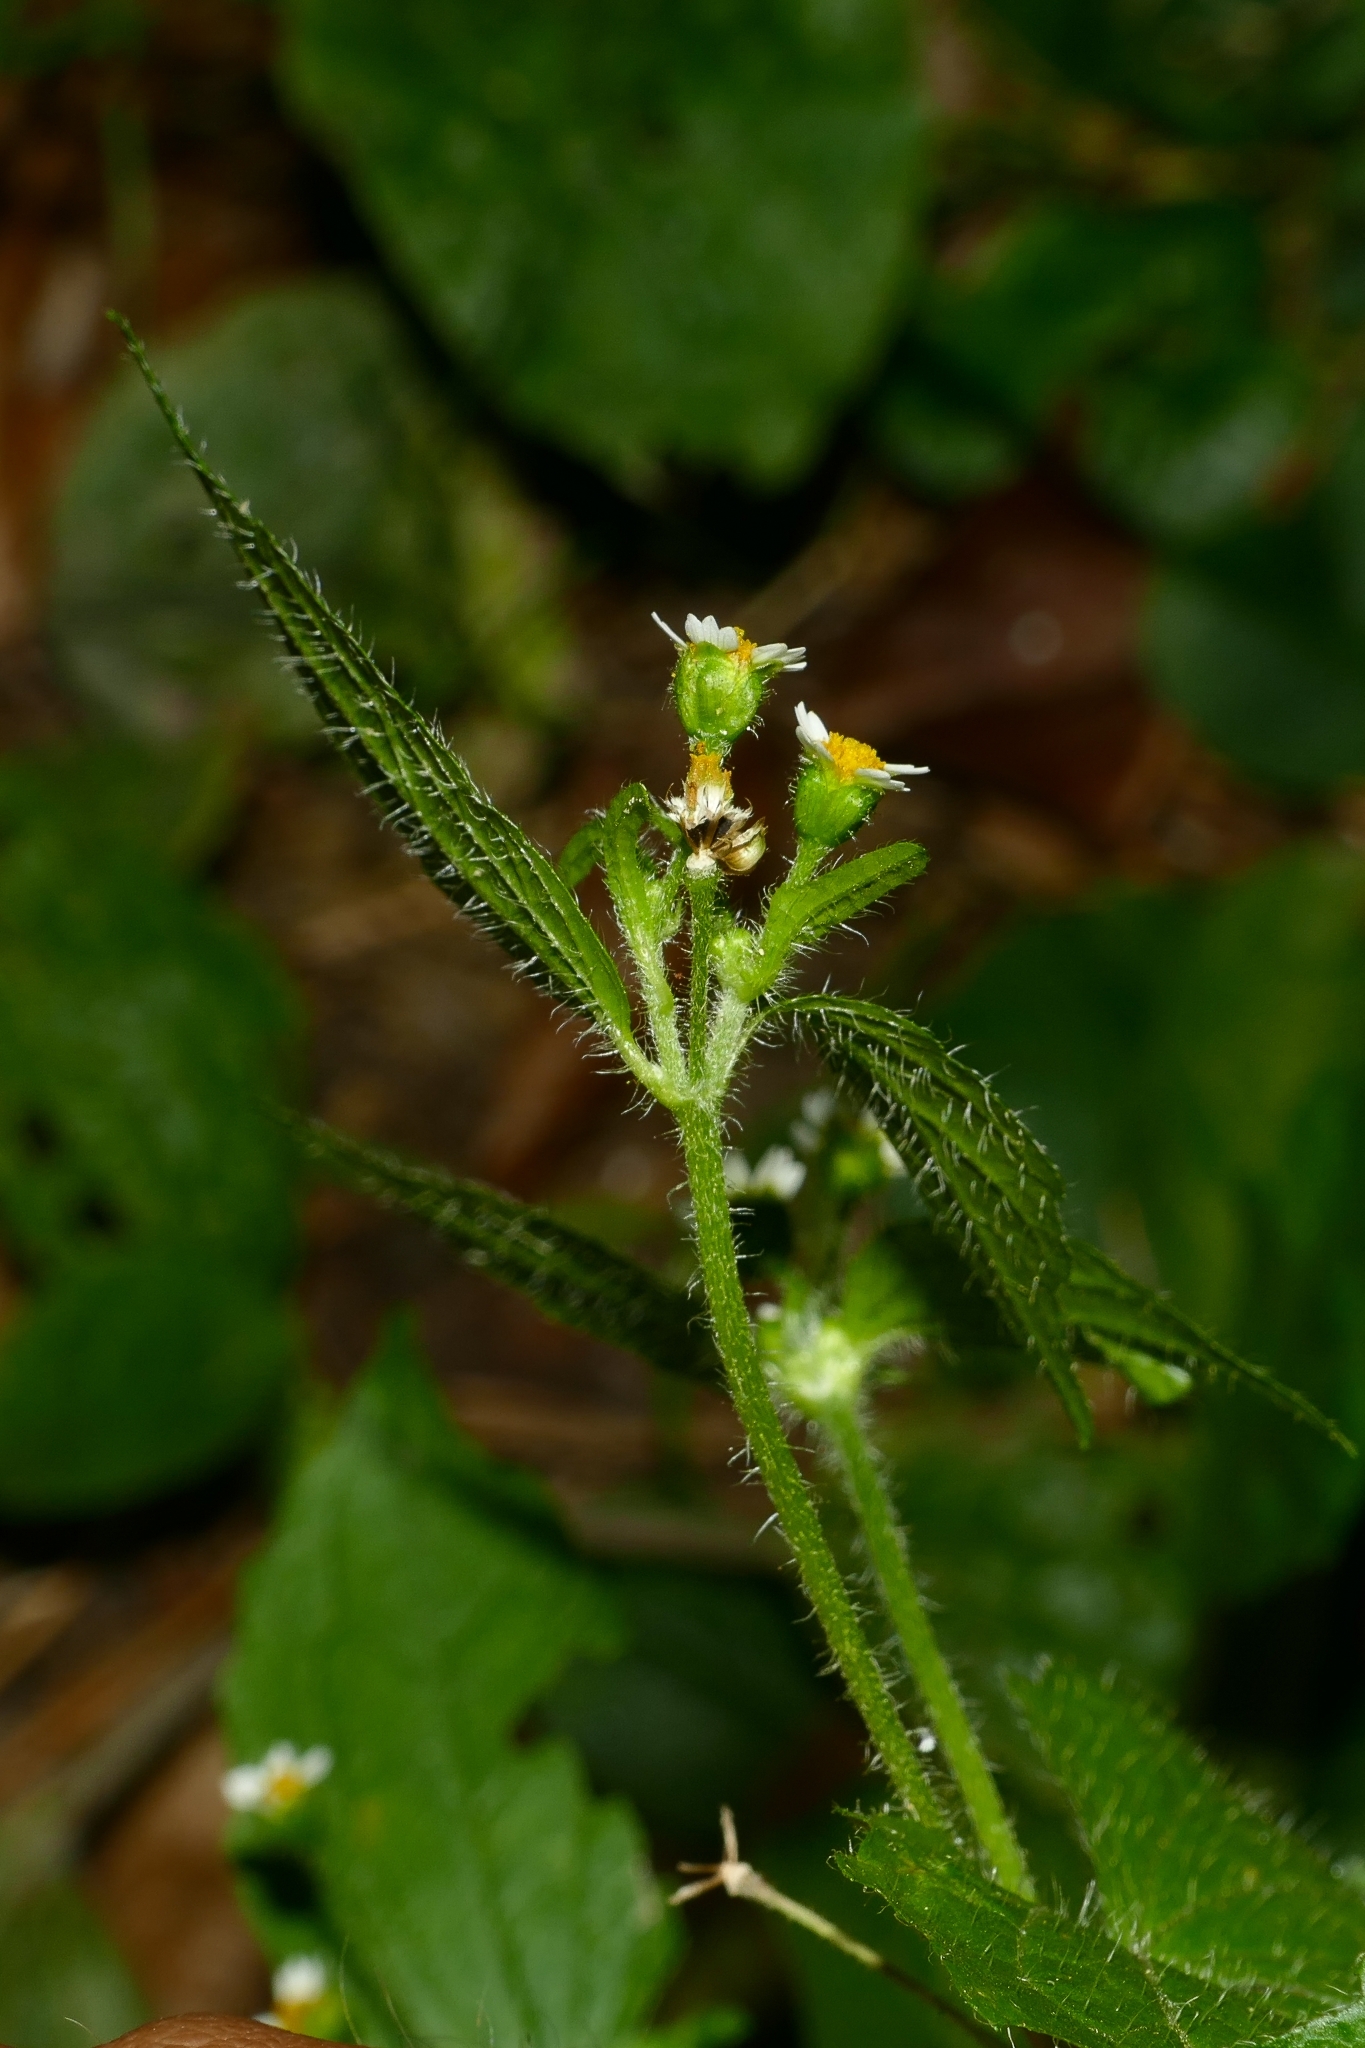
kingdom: Plantae
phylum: Tracheophyta
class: Magnoliopsida
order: Asterales
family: Asteraceae
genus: Galinsoga
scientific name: Galinsoga quadriradiata
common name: Shaggy soldier
